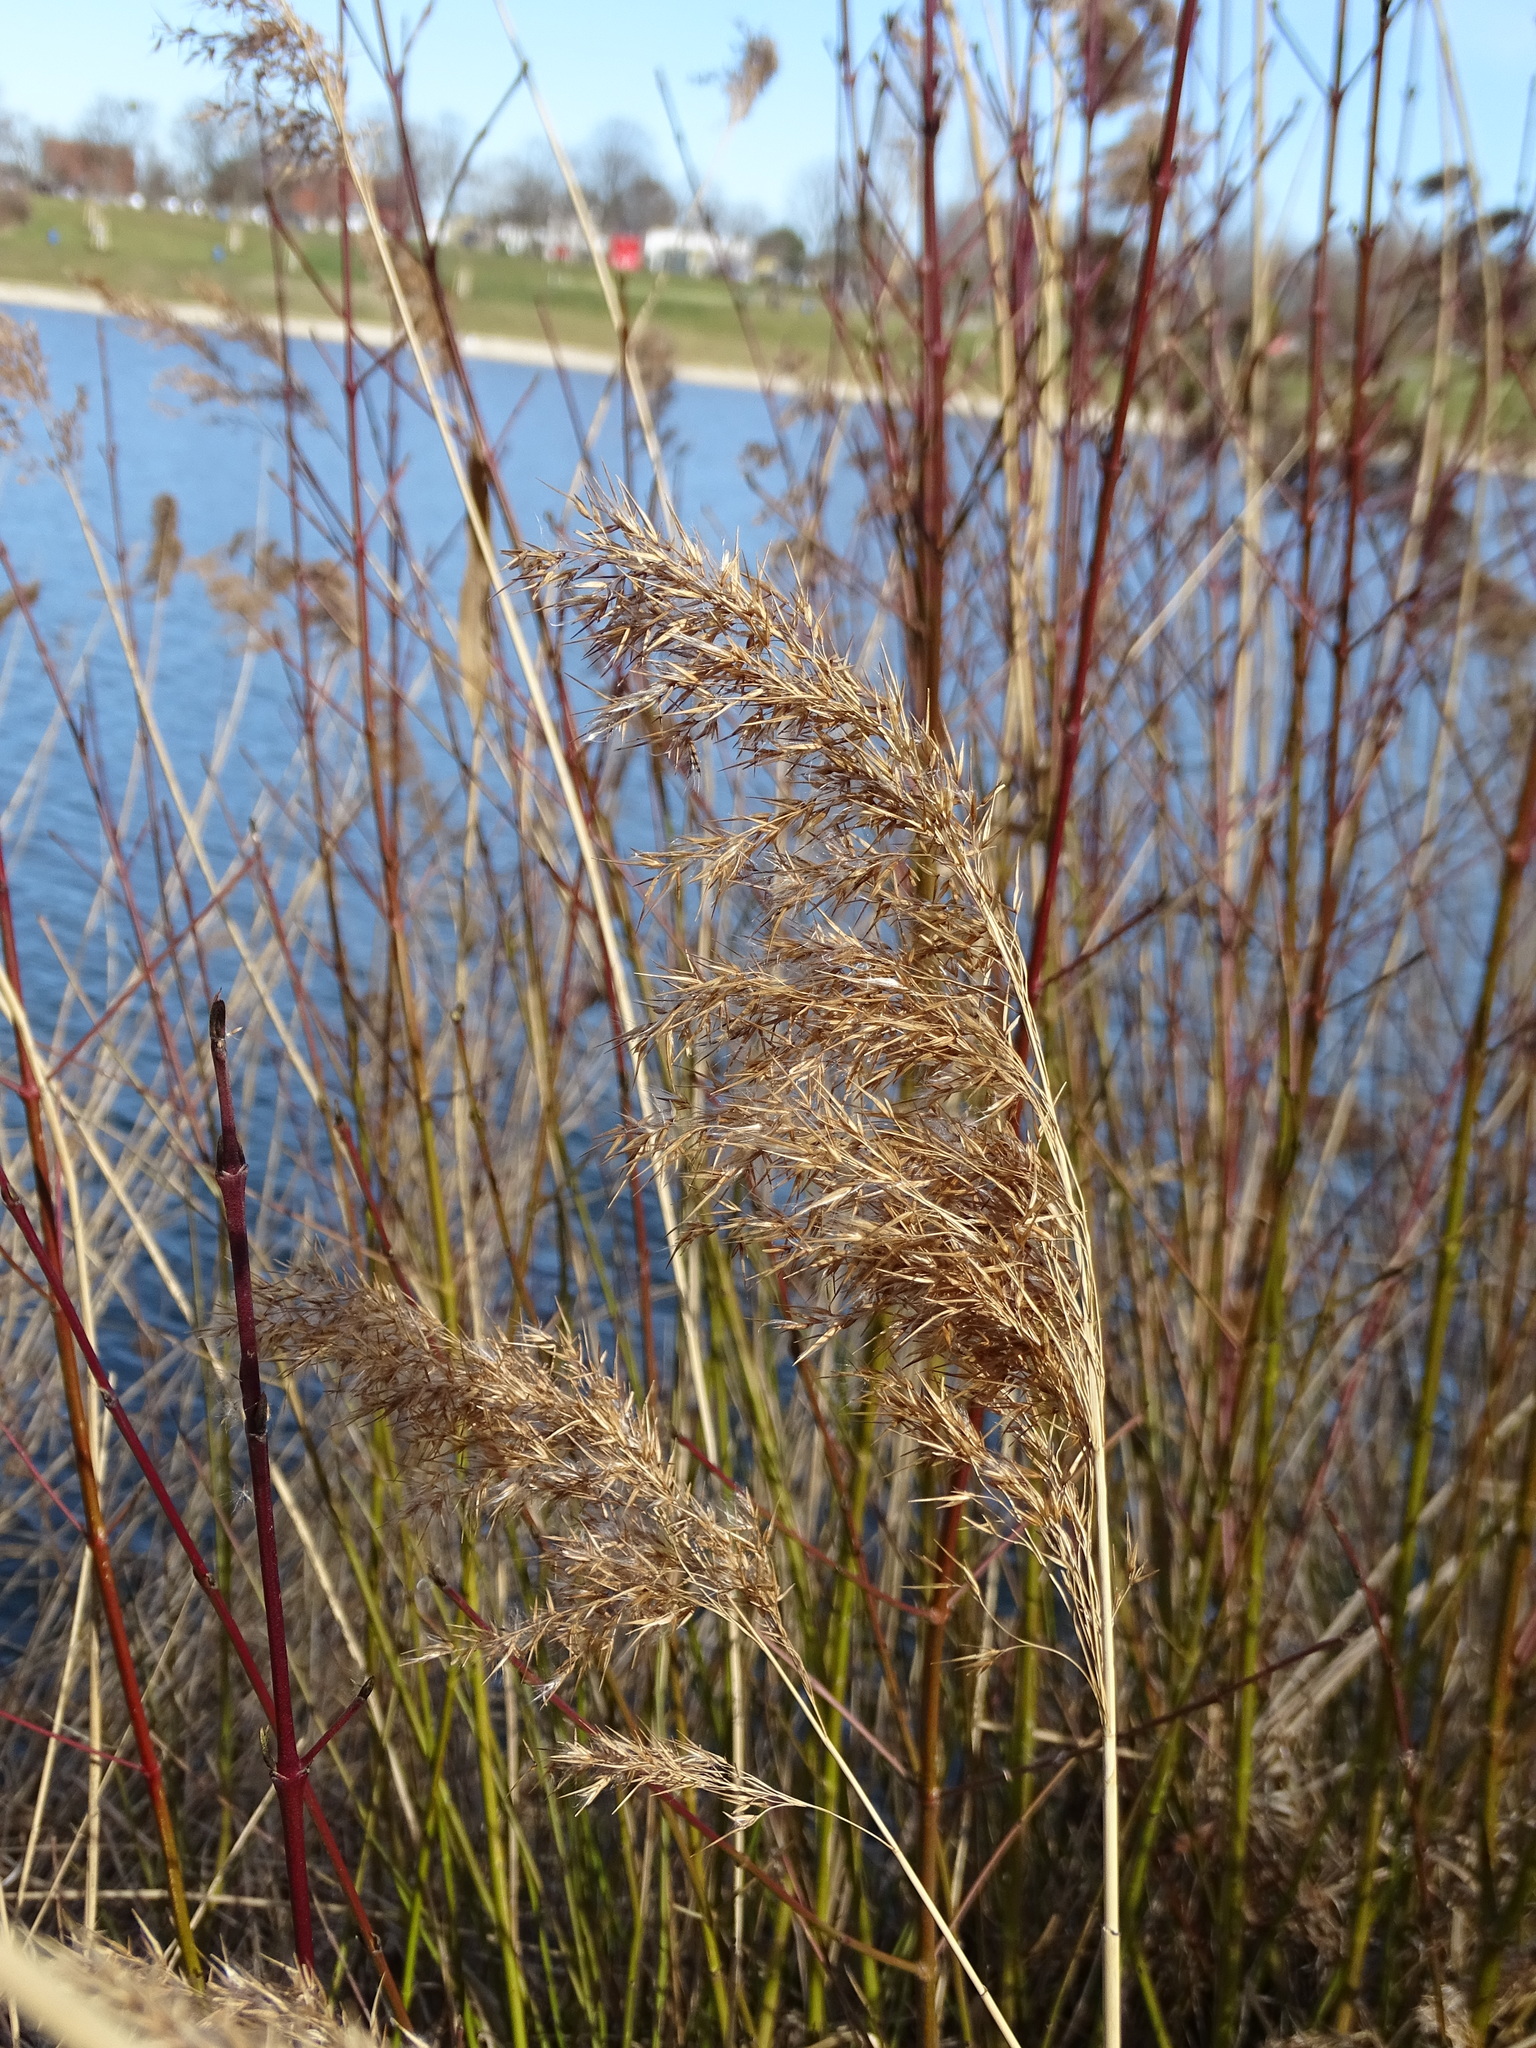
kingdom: Plantae
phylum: Tracheophyta
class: Liliopsida
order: Poales
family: Poaceae
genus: Phragmites
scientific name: Phragmites australis
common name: Common reed
